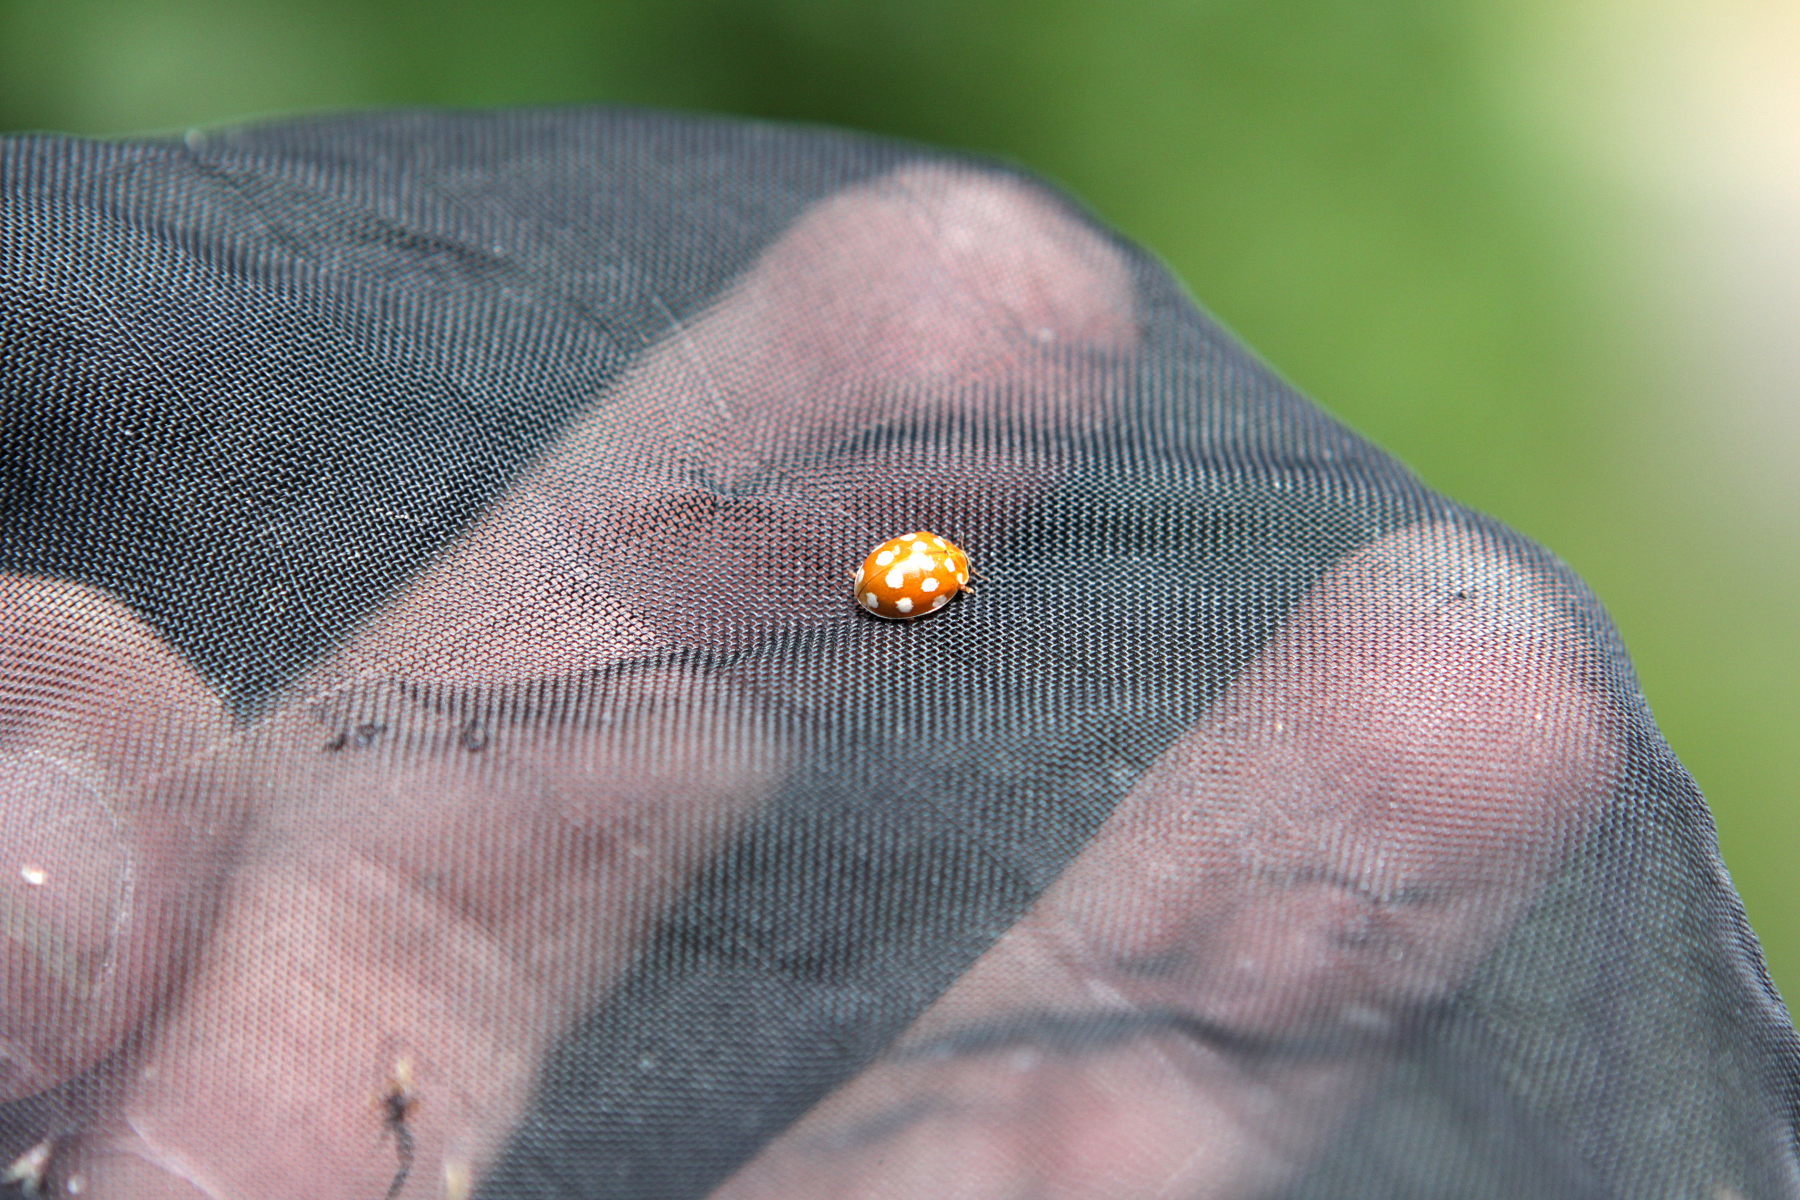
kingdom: Animalia
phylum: Arthropoda
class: Insecta
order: Coleoptera
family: Coccinellidae
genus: Calvia
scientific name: Calvia quatuordecimguttata
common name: Cream-spot ladybird
